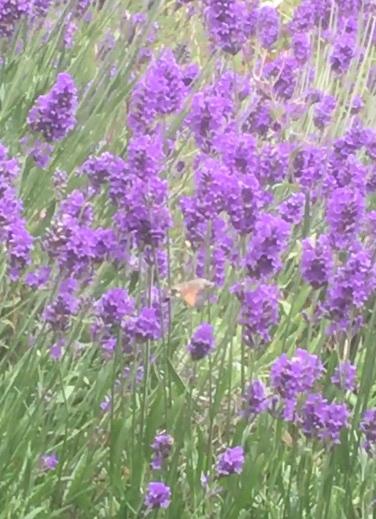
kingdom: Animalia
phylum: Arthropoda
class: Insecta
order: Lepidoptera
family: Sphingidae
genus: Macroglossum
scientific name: Macroglossum stellatarum
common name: Humming-bird hawk-moth
